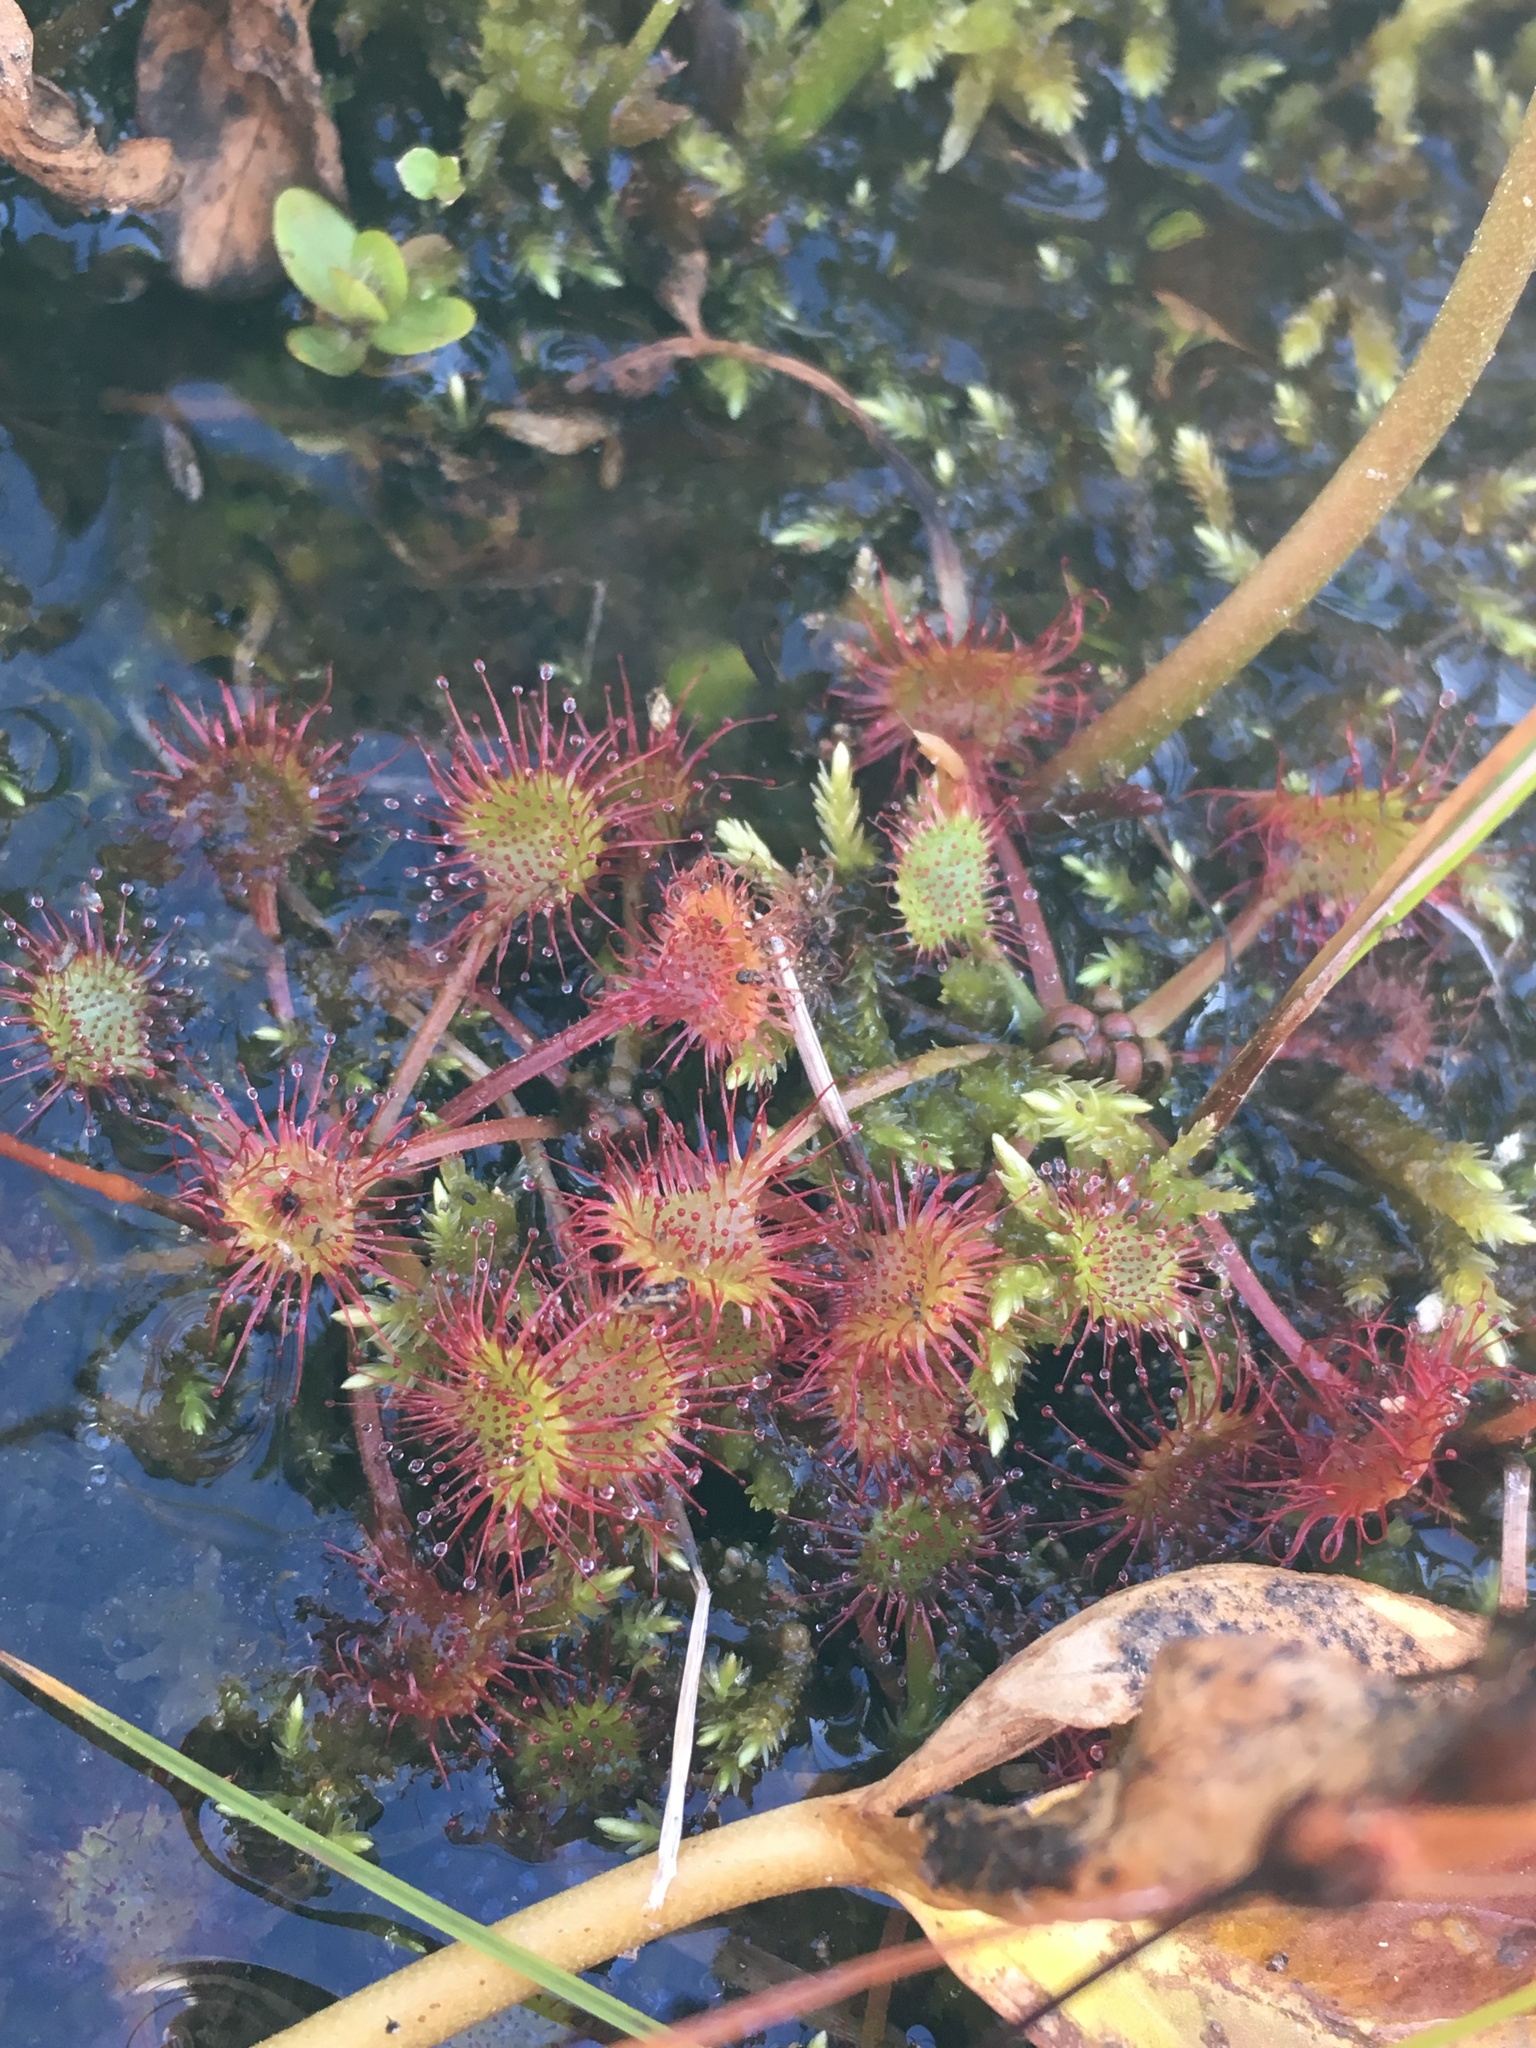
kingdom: Plantae
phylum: Tracheophyta
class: Magnoliopsida
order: Caryophyllales
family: Droseraceae
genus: Drosera
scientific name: Drosera rotundifolia
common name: Round-leaved sundew
